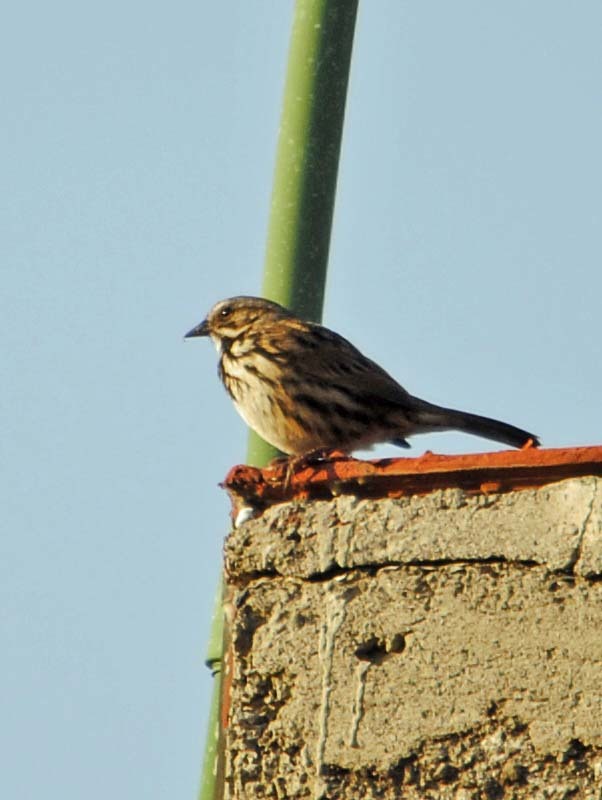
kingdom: Animalia
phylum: Chordata
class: Aves
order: Passeriformes
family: Passerellidae
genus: Melospiza
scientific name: Melospiza melodia
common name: Song sparrow
